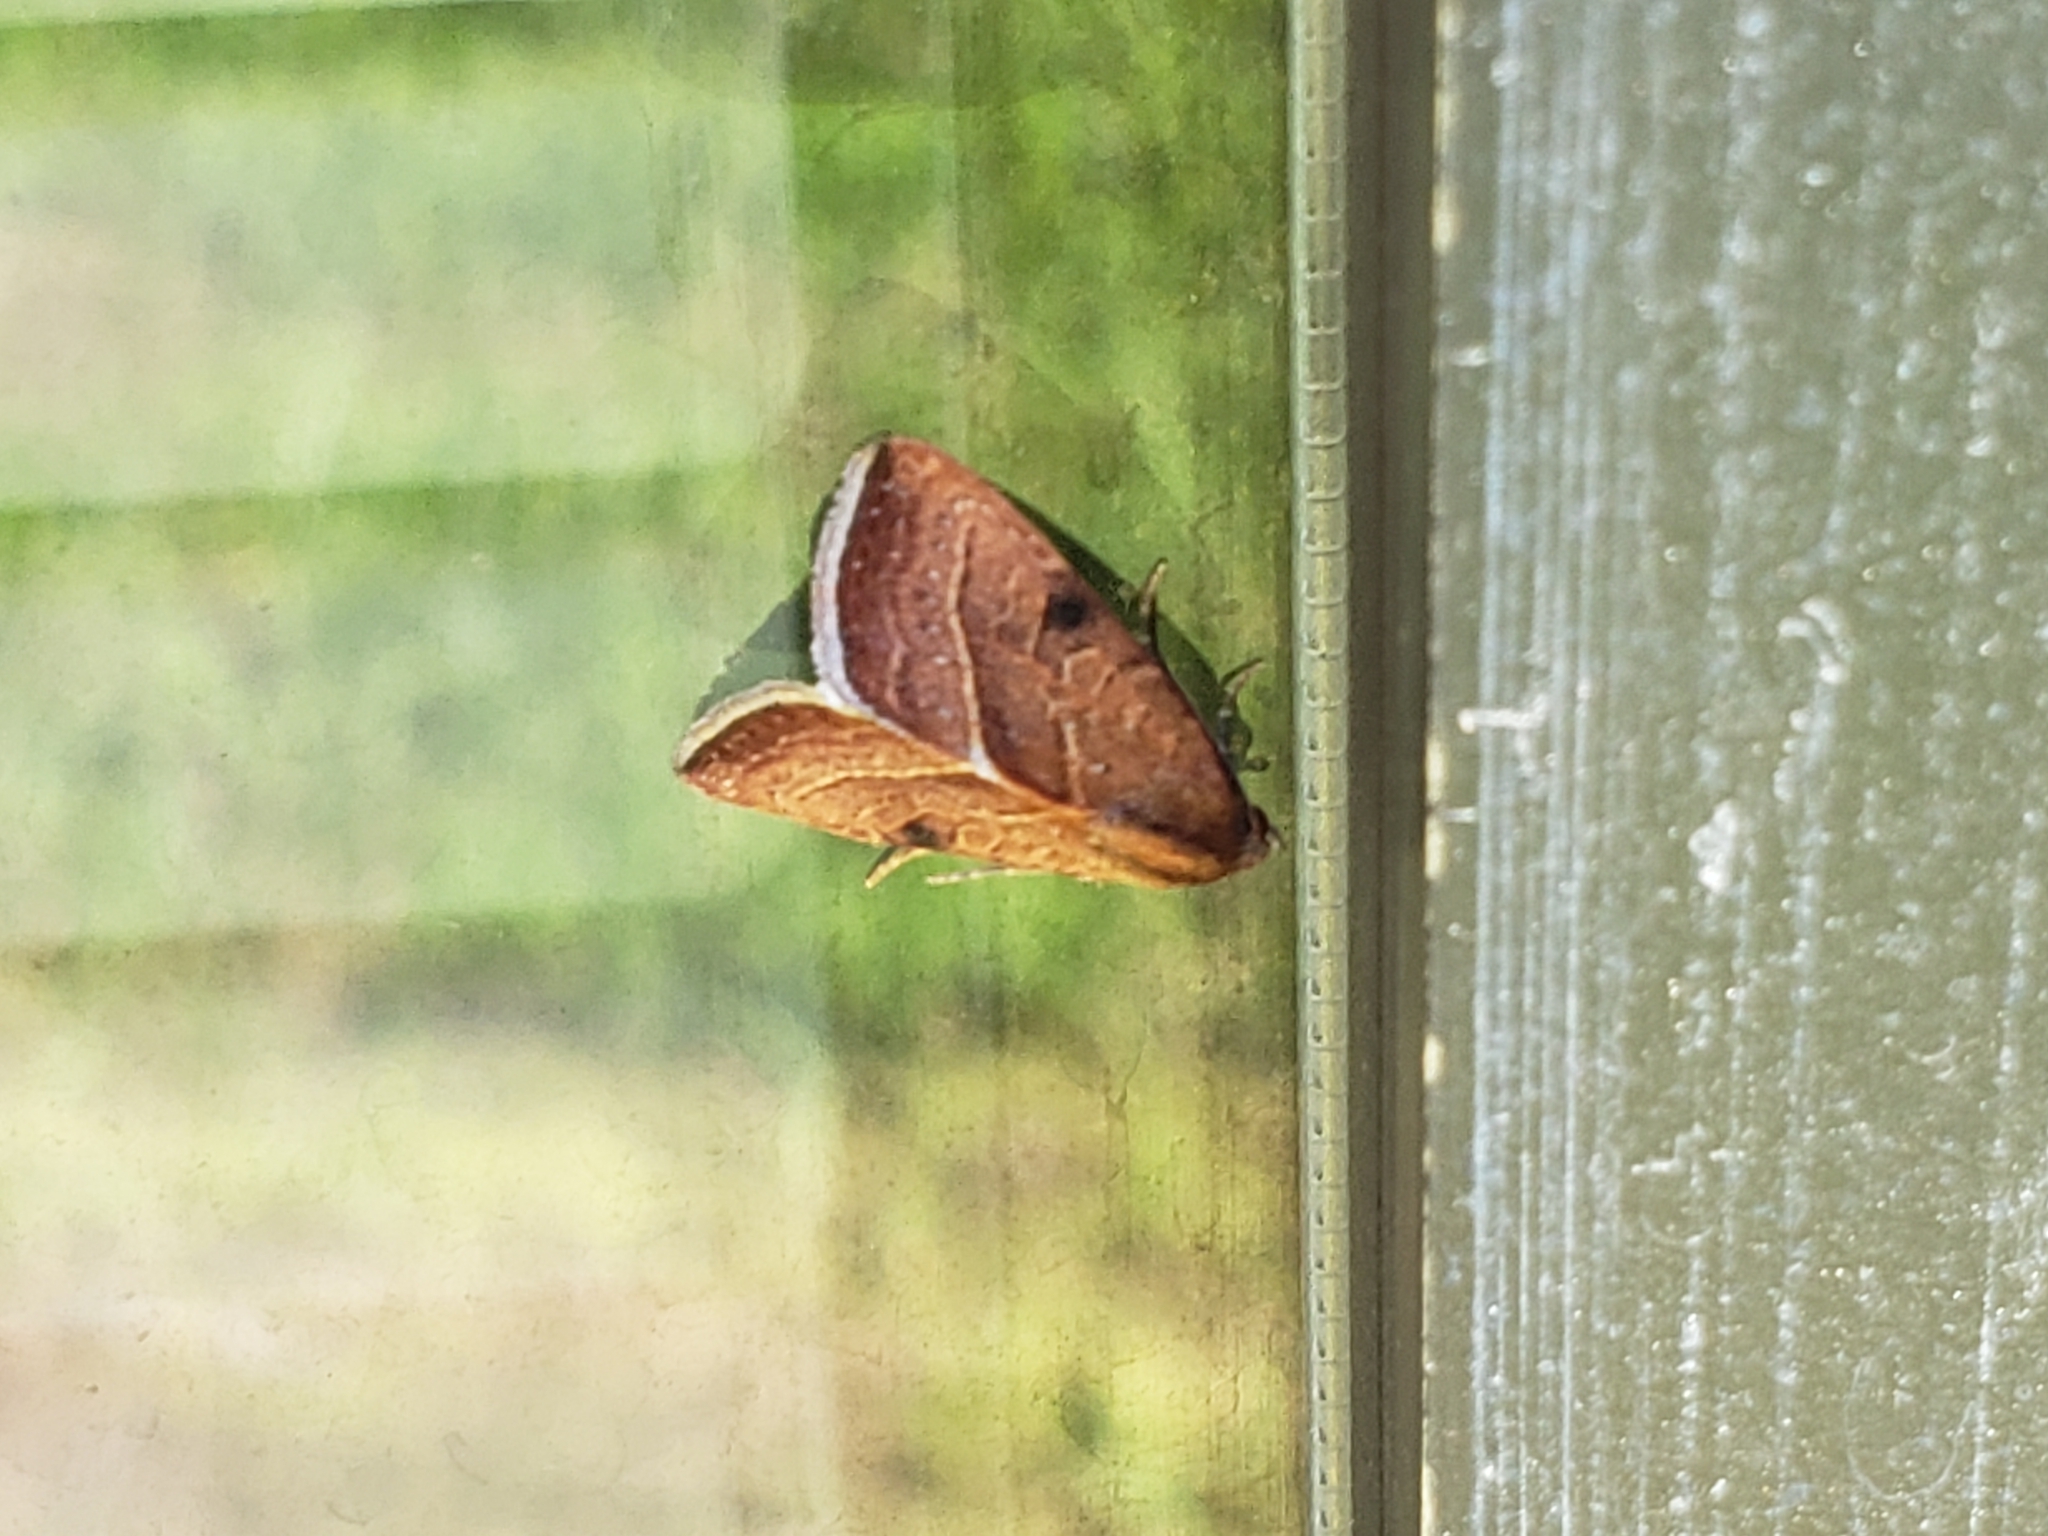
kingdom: Animalia
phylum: Arthropoda
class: Insecta
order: Lepidoptera
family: Noctuidae
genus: Galgula
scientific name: Galgula partita
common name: Wedgeling
